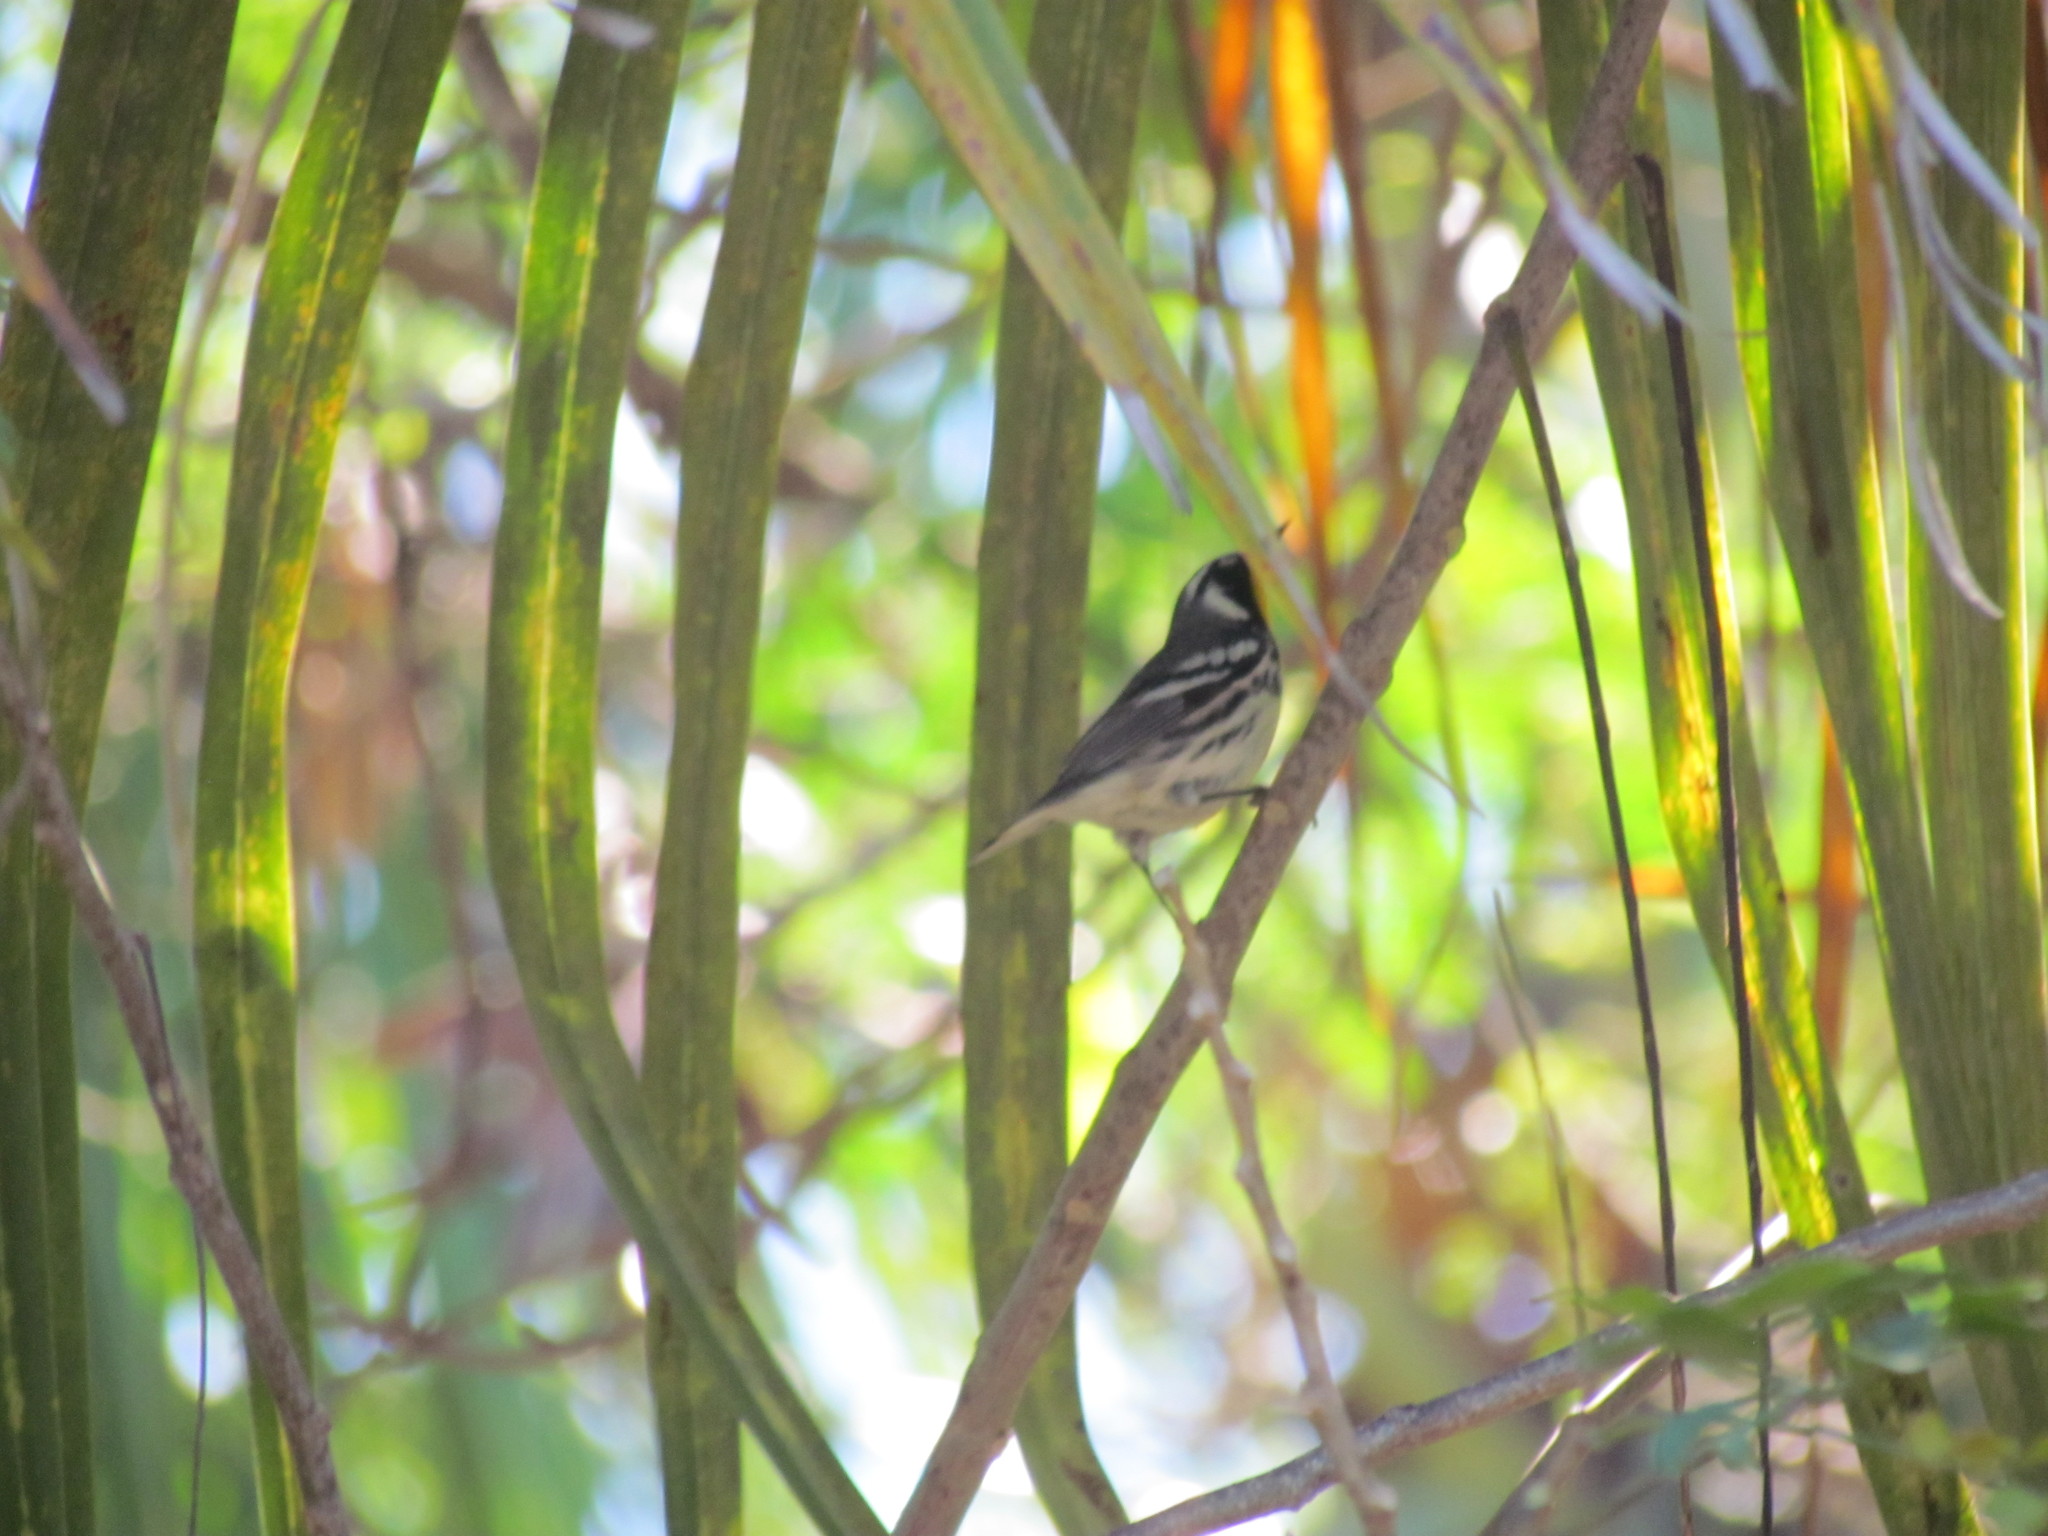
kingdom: Animalia
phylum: Chordata
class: Aves
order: Passeriformes
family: Parulidae
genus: Setophaga
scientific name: Setophaga dominica
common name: Yellow-throated warbler
